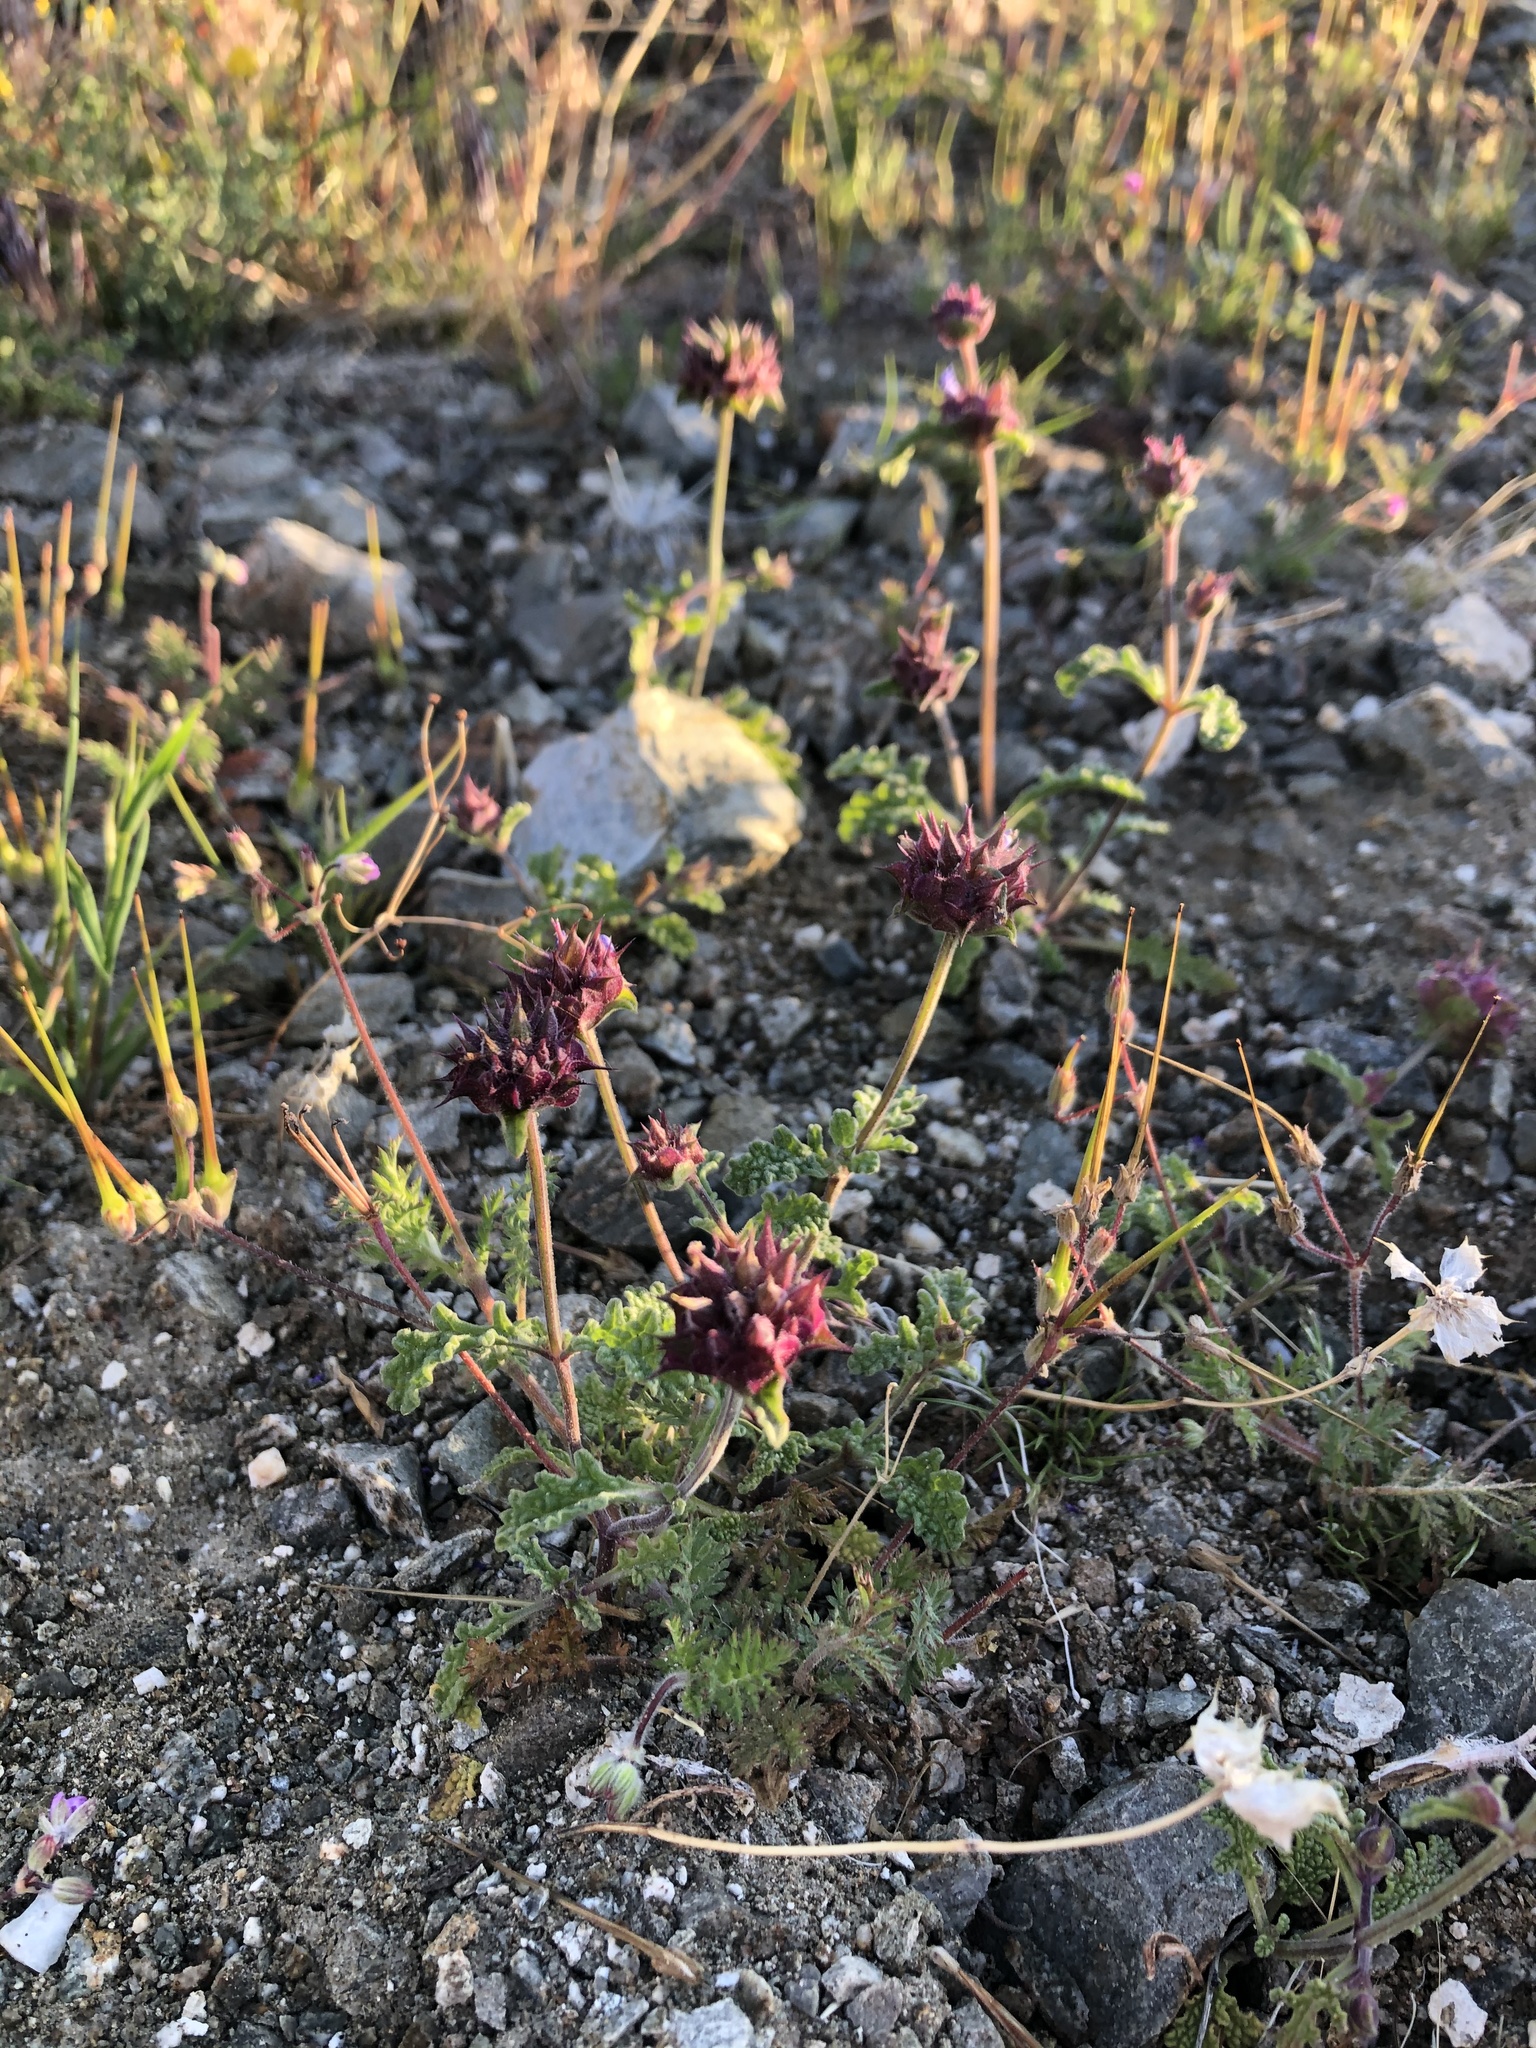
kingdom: Plantae
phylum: Tracheophyta
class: Magnoliopsida
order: Lamiales
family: Lamiaceae
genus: Salvia
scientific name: Salvia columbariae
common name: Chia
